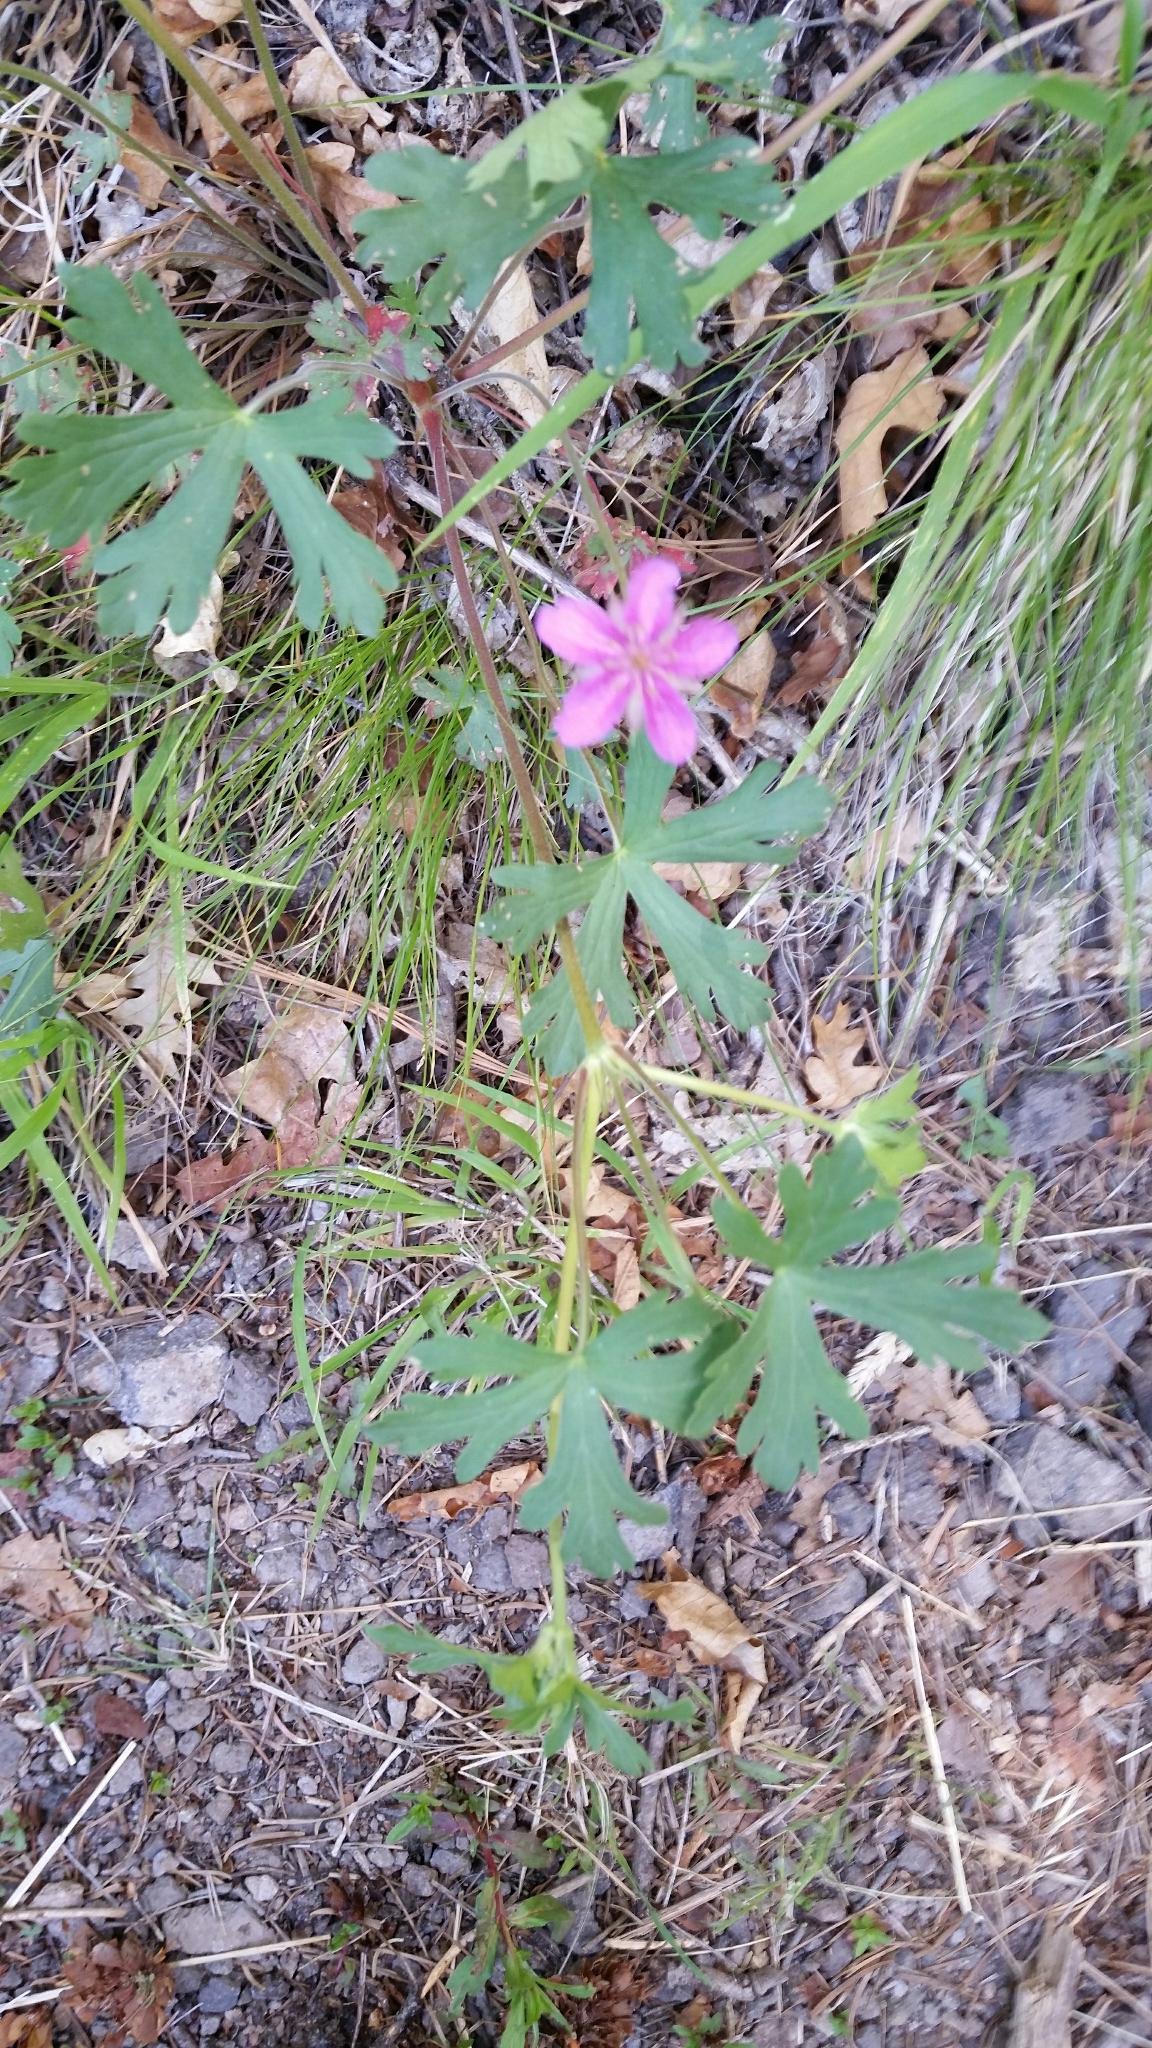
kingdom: Plantae
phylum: Tracheophyta
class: Magnoliopsida
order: Geraniales
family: Geraniaceae
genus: Geranium
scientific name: Geranium caespitosum
